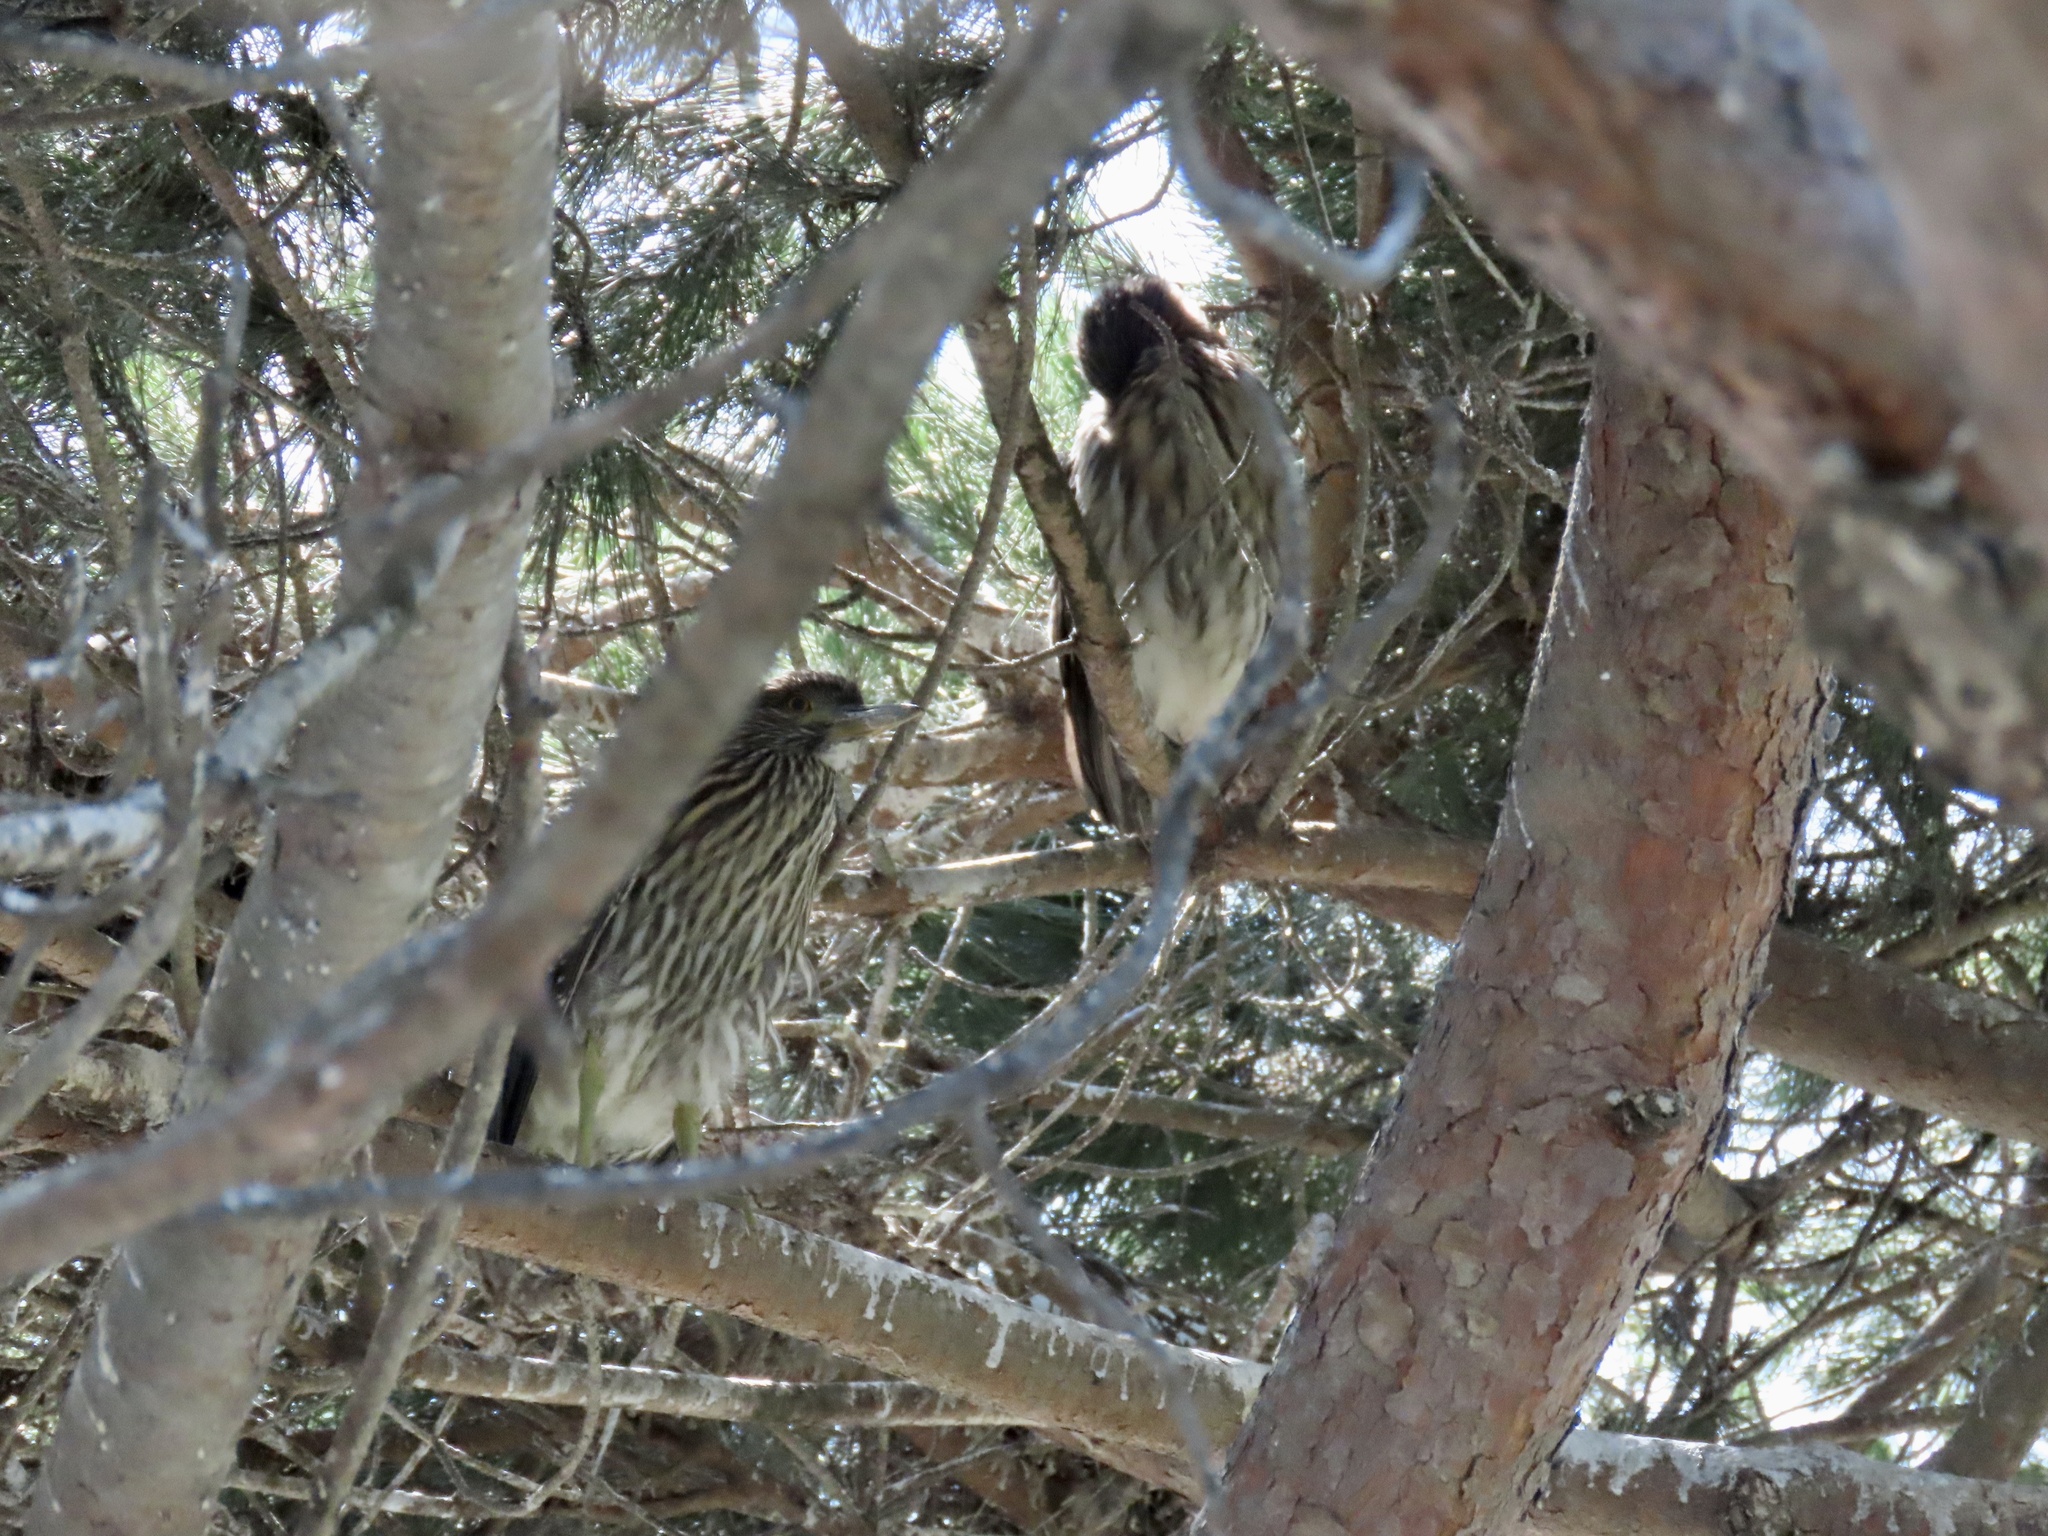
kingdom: Animalia
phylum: Chordata
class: Aves
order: Pelecaniformes
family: Ardeidae
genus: Nycticorax
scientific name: Nycticorax nycticorax
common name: Black-crowned night heron
